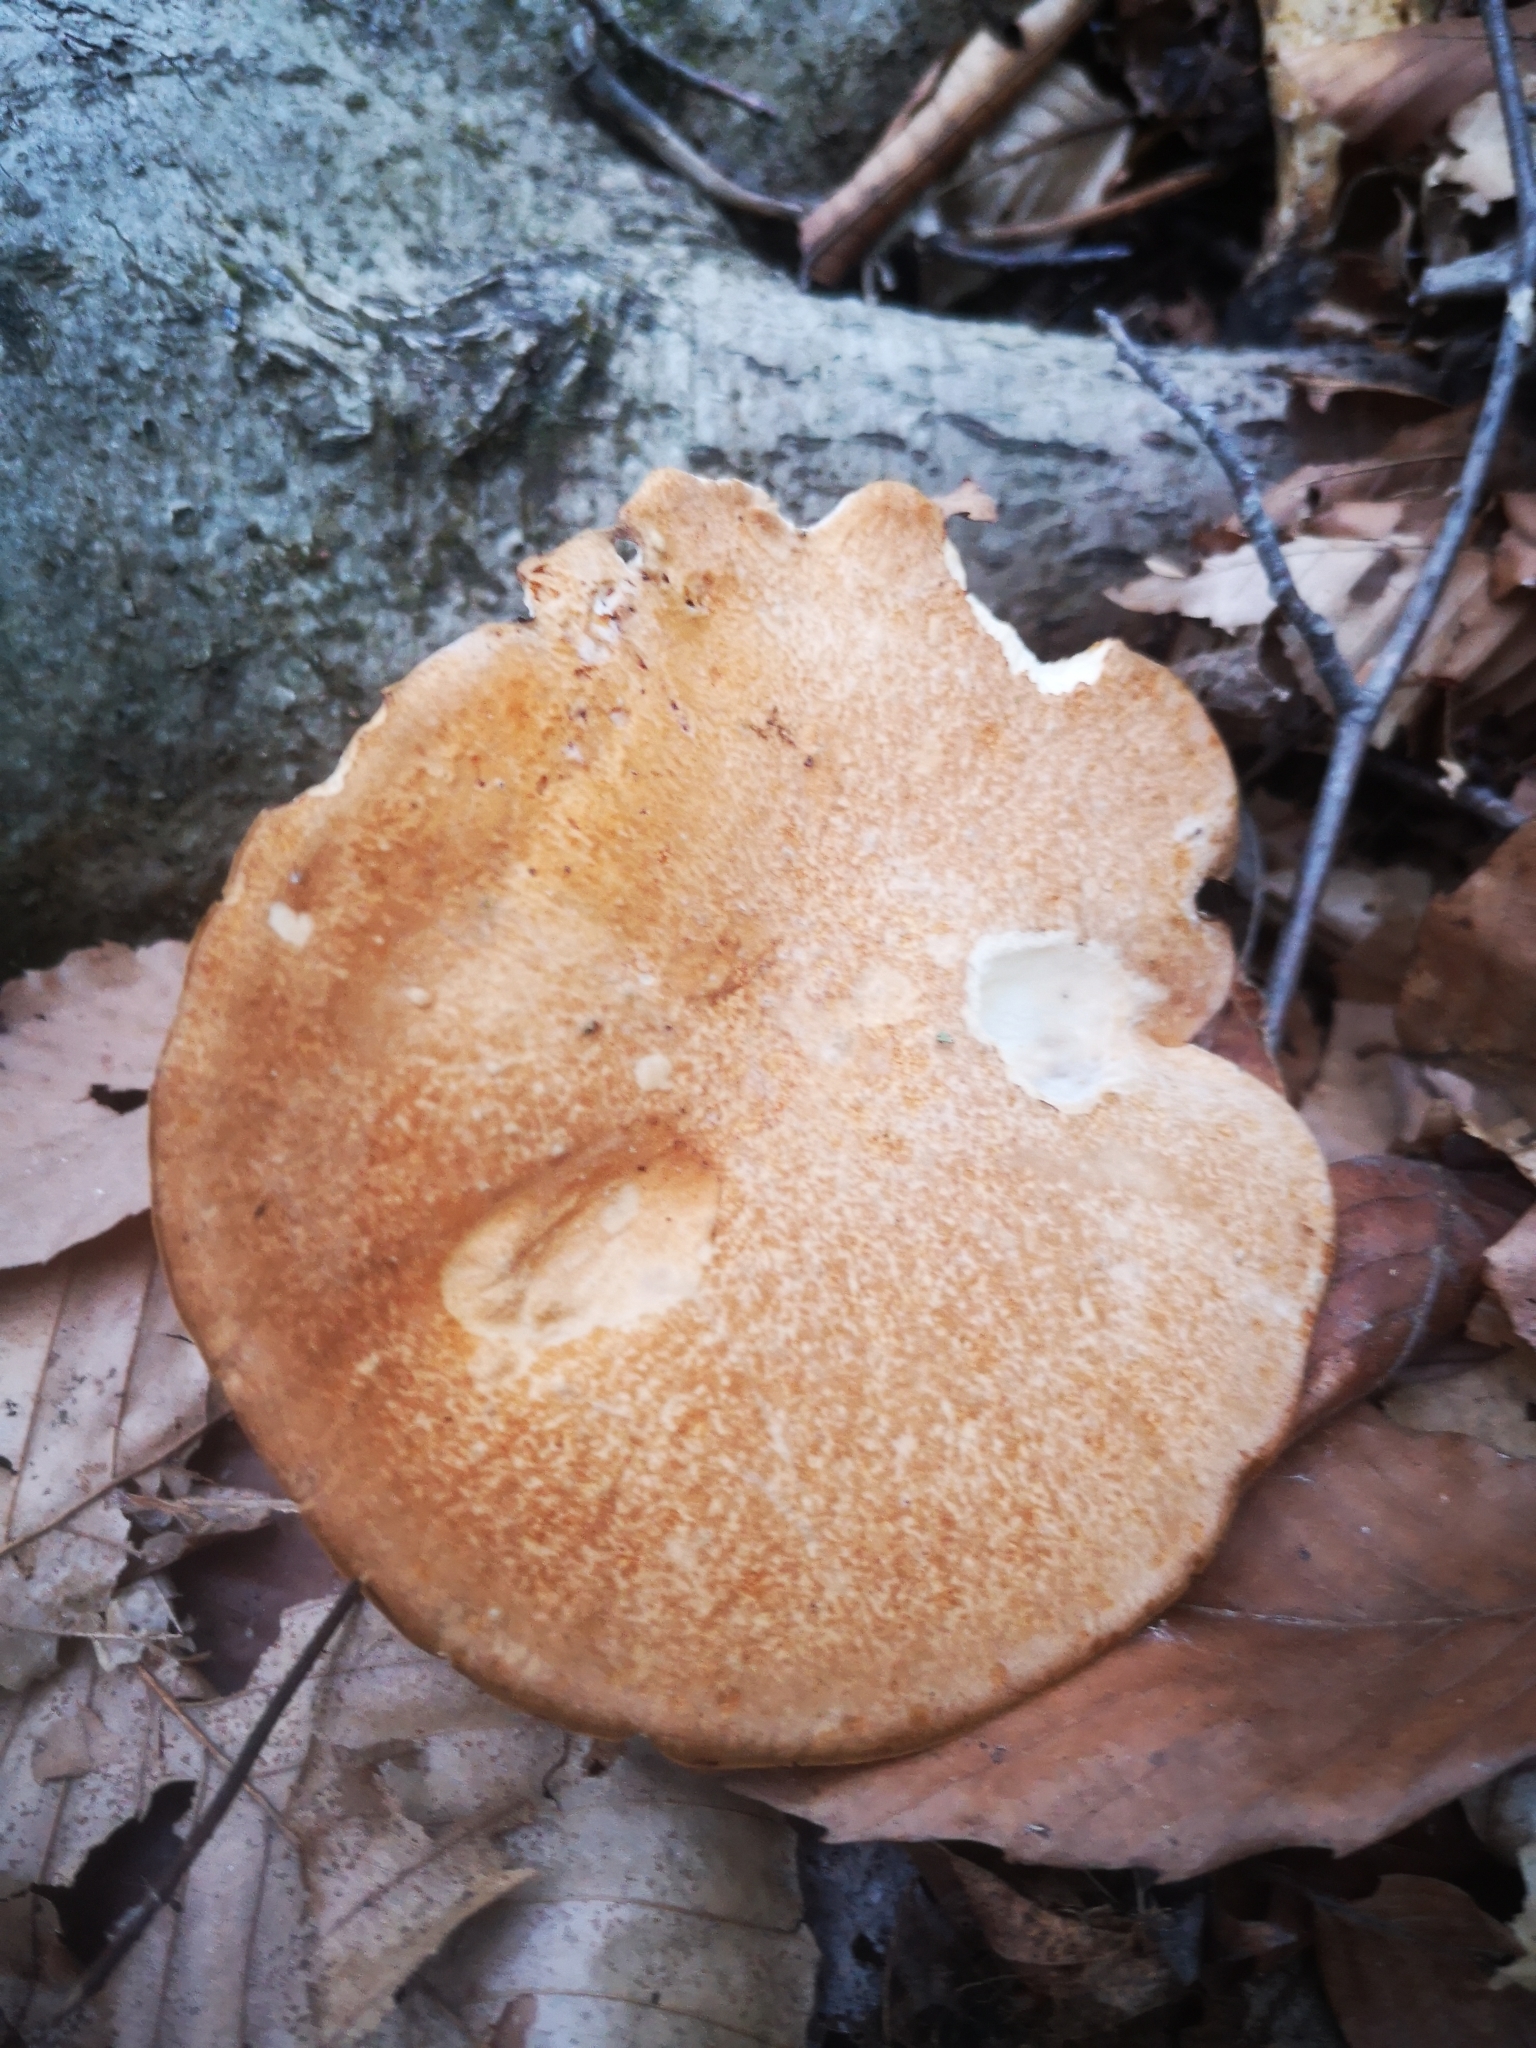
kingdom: Fungi
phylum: Basidiomycota
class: Agaricomycetes
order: Polyporales
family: Polyporaceae
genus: Polyporus
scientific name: Polyporus radicatus
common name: Rooting polypore
